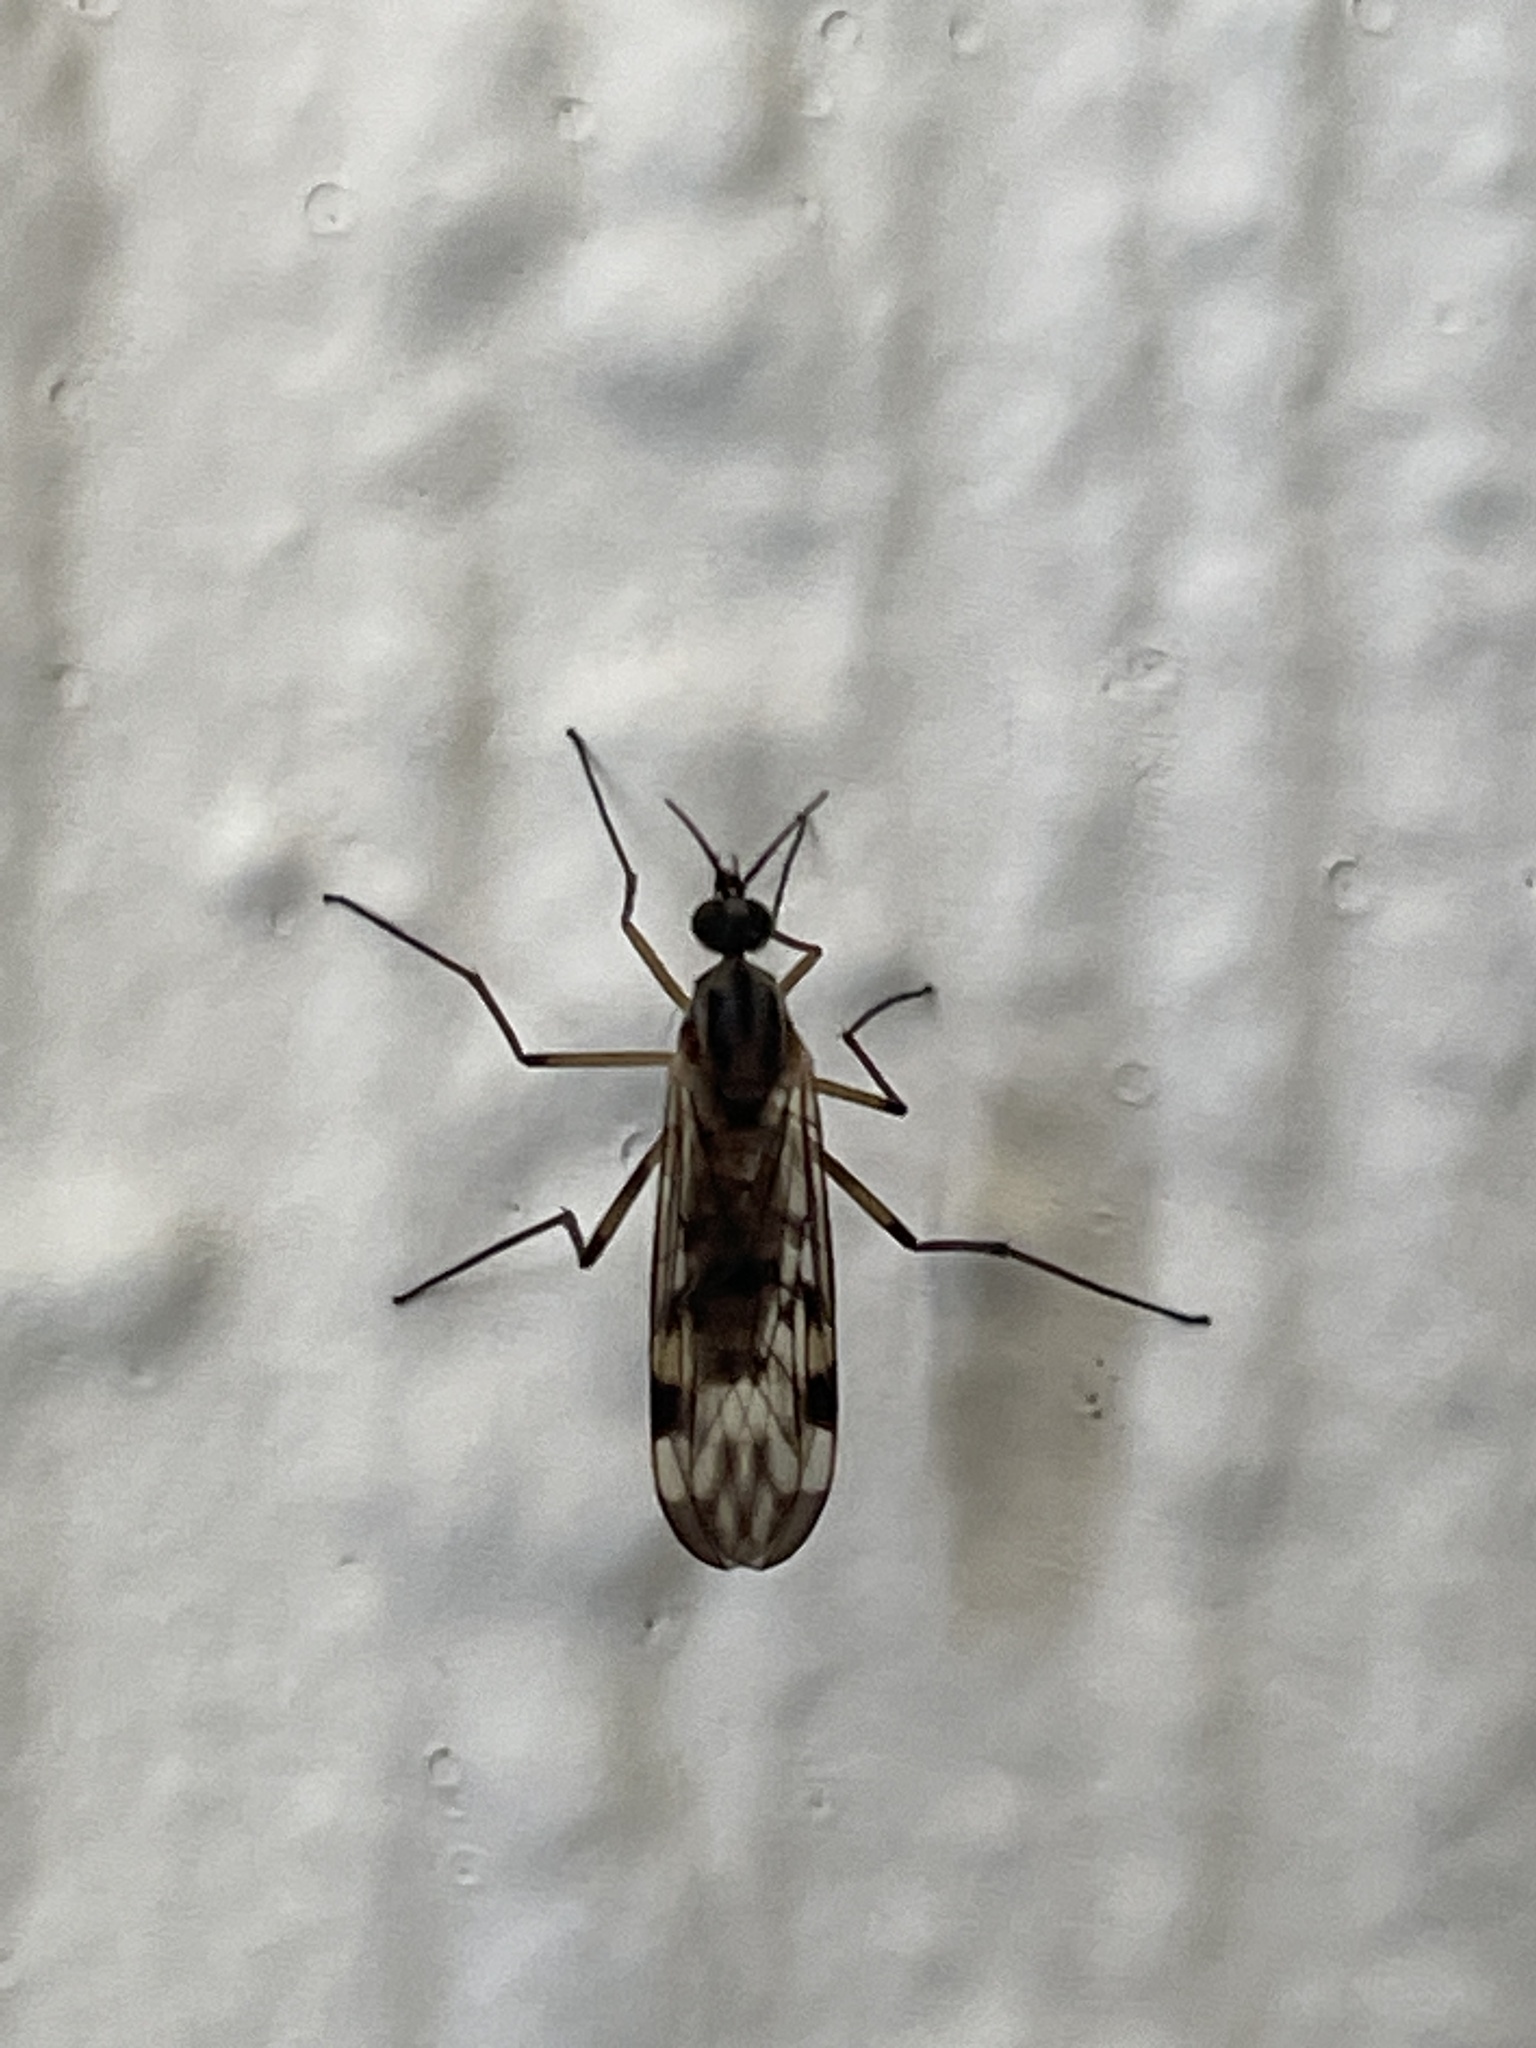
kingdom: Animalia
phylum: Arthropoda
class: Insecta
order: Diptera
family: Anisopodidae
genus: Sylvicola
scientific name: Sylvicola punctatus
